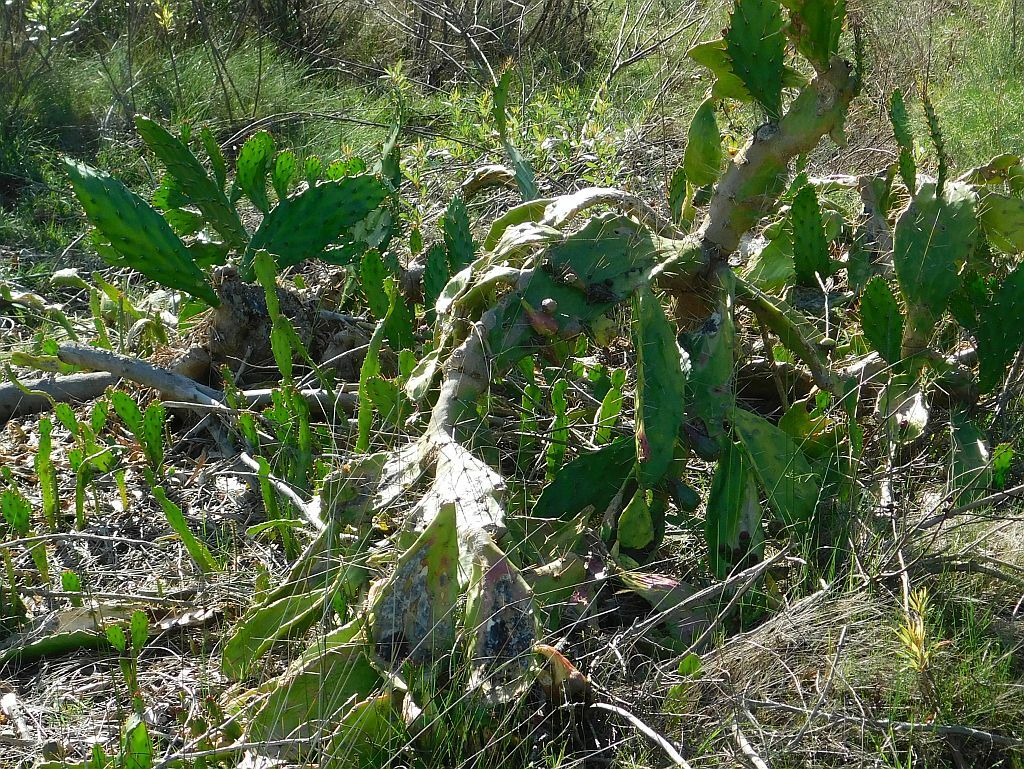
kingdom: Plantae
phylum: Tracheophyta
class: Magnoliopsida
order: Caryophyllales
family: Cactaceae
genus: Opuntia
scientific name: Opuntia monacantha
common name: Common pricklypear
